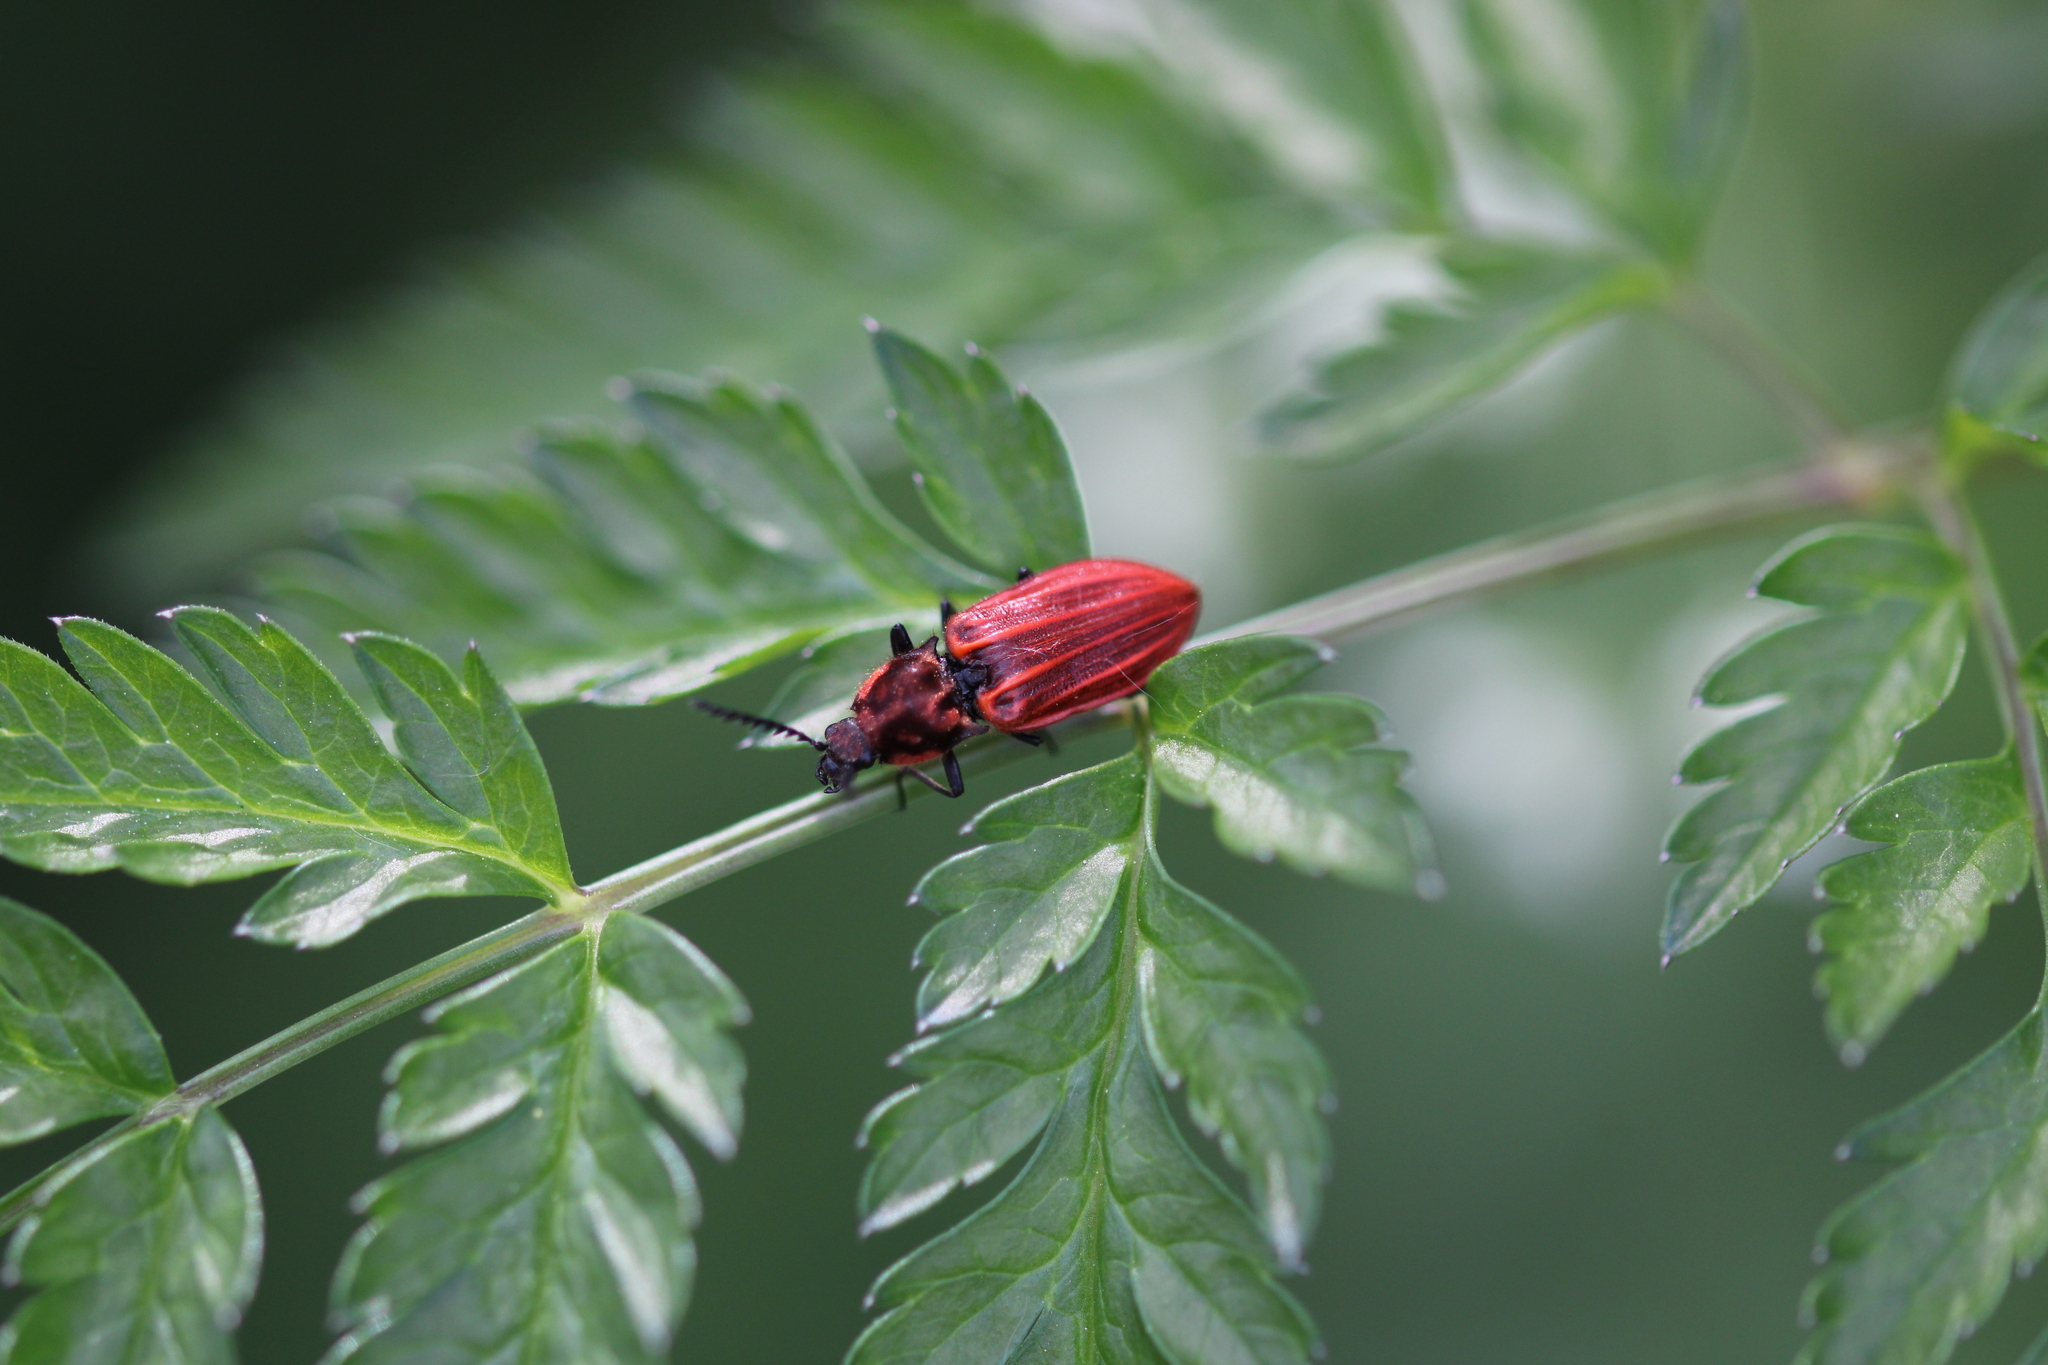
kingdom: Animalia
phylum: Arthropoda
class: Insecta
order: Coleoptera
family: Elateridae
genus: Anostirus
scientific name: Anostirus purpureus
